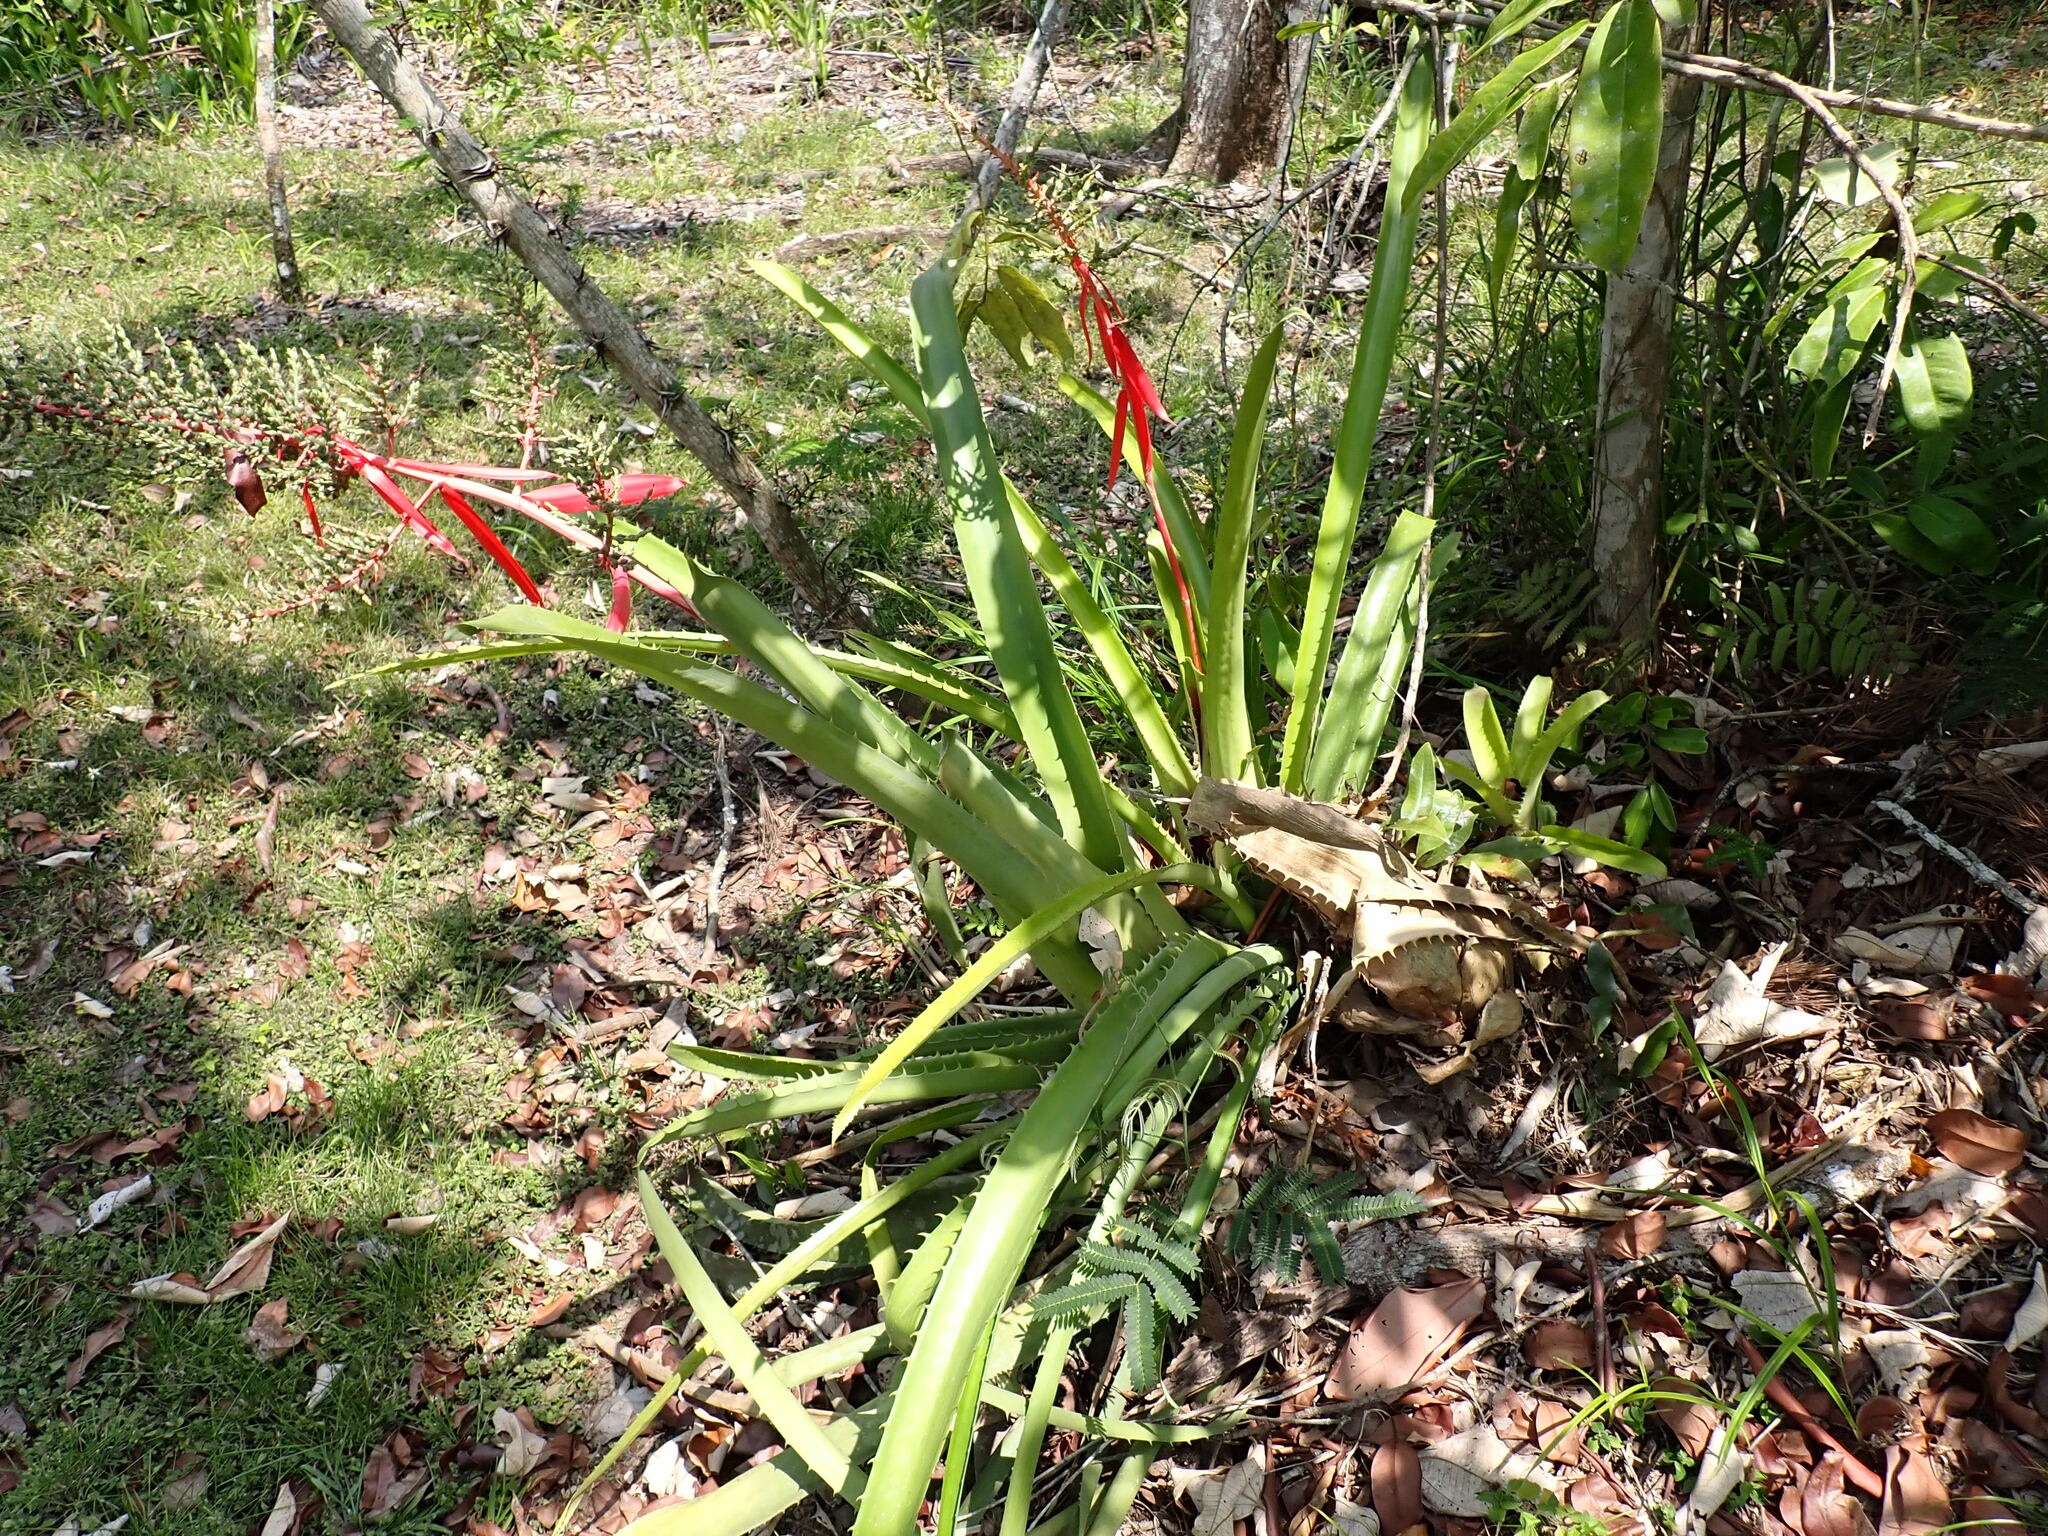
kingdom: Plantae
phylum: Tracheophyta
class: Liliopsida
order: Poales
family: Bromeliaceae
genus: Aechmea
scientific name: Aechmea bracteata
